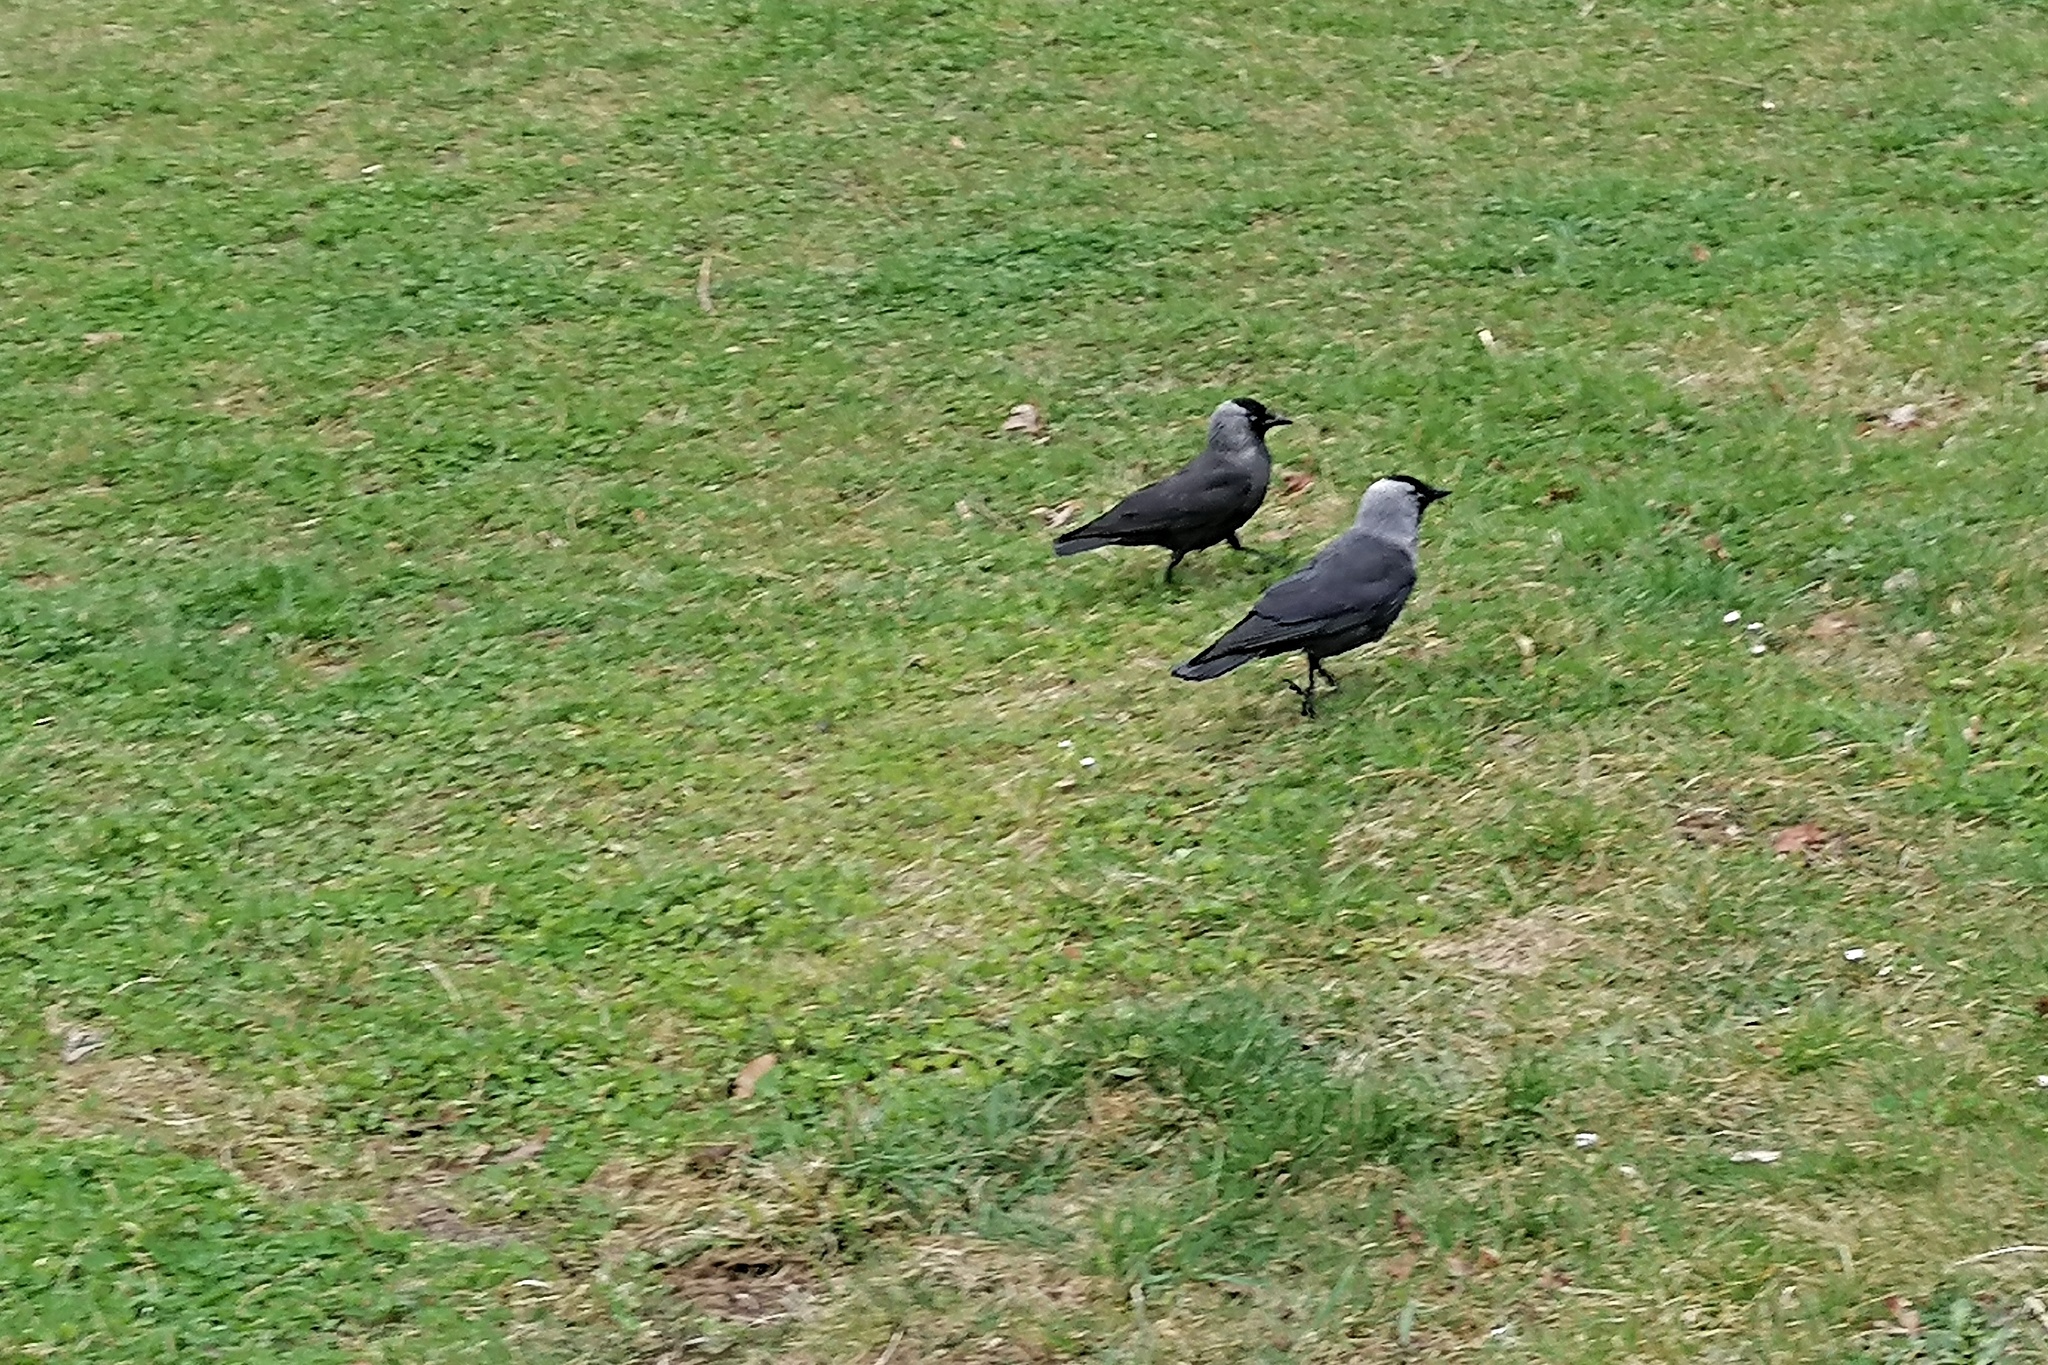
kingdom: Animalia
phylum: Chordata
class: Aves
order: Passeriformes
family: Corvidae
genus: Coloeus
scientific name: Coloeus monedula
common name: Western jackdaw
